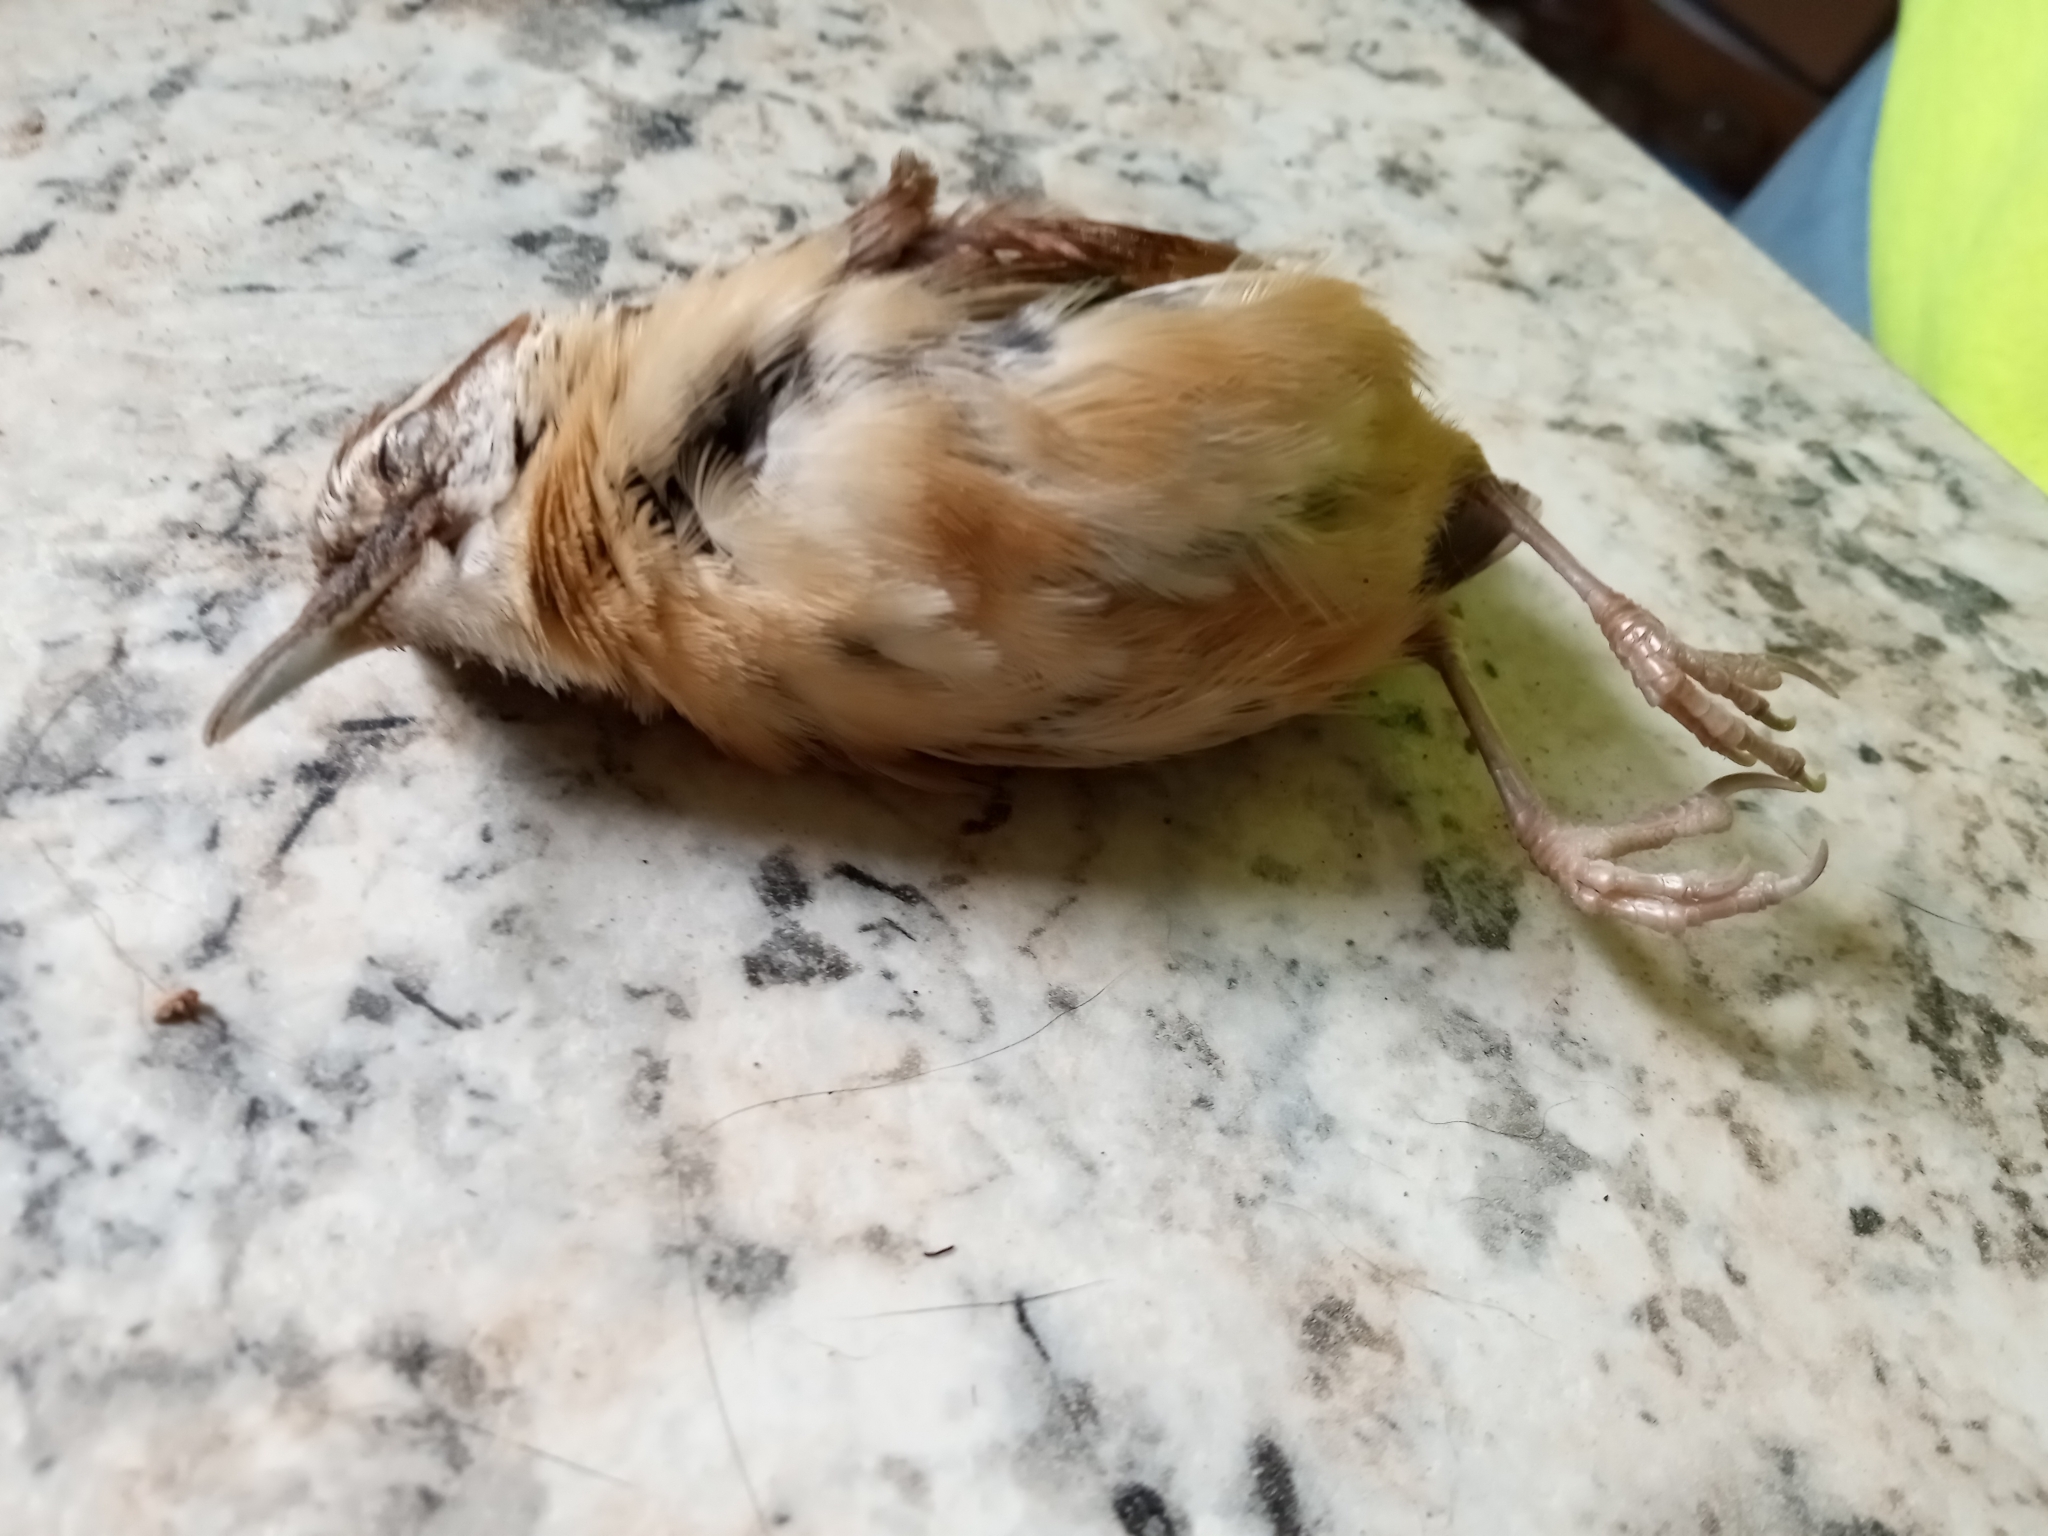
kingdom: Animalia
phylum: Chordata
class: Aves
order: Passeriformes
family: Troglodytidae
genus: Thryothorus
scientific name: Thryothorus ludovicianus
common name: Carolina wren
